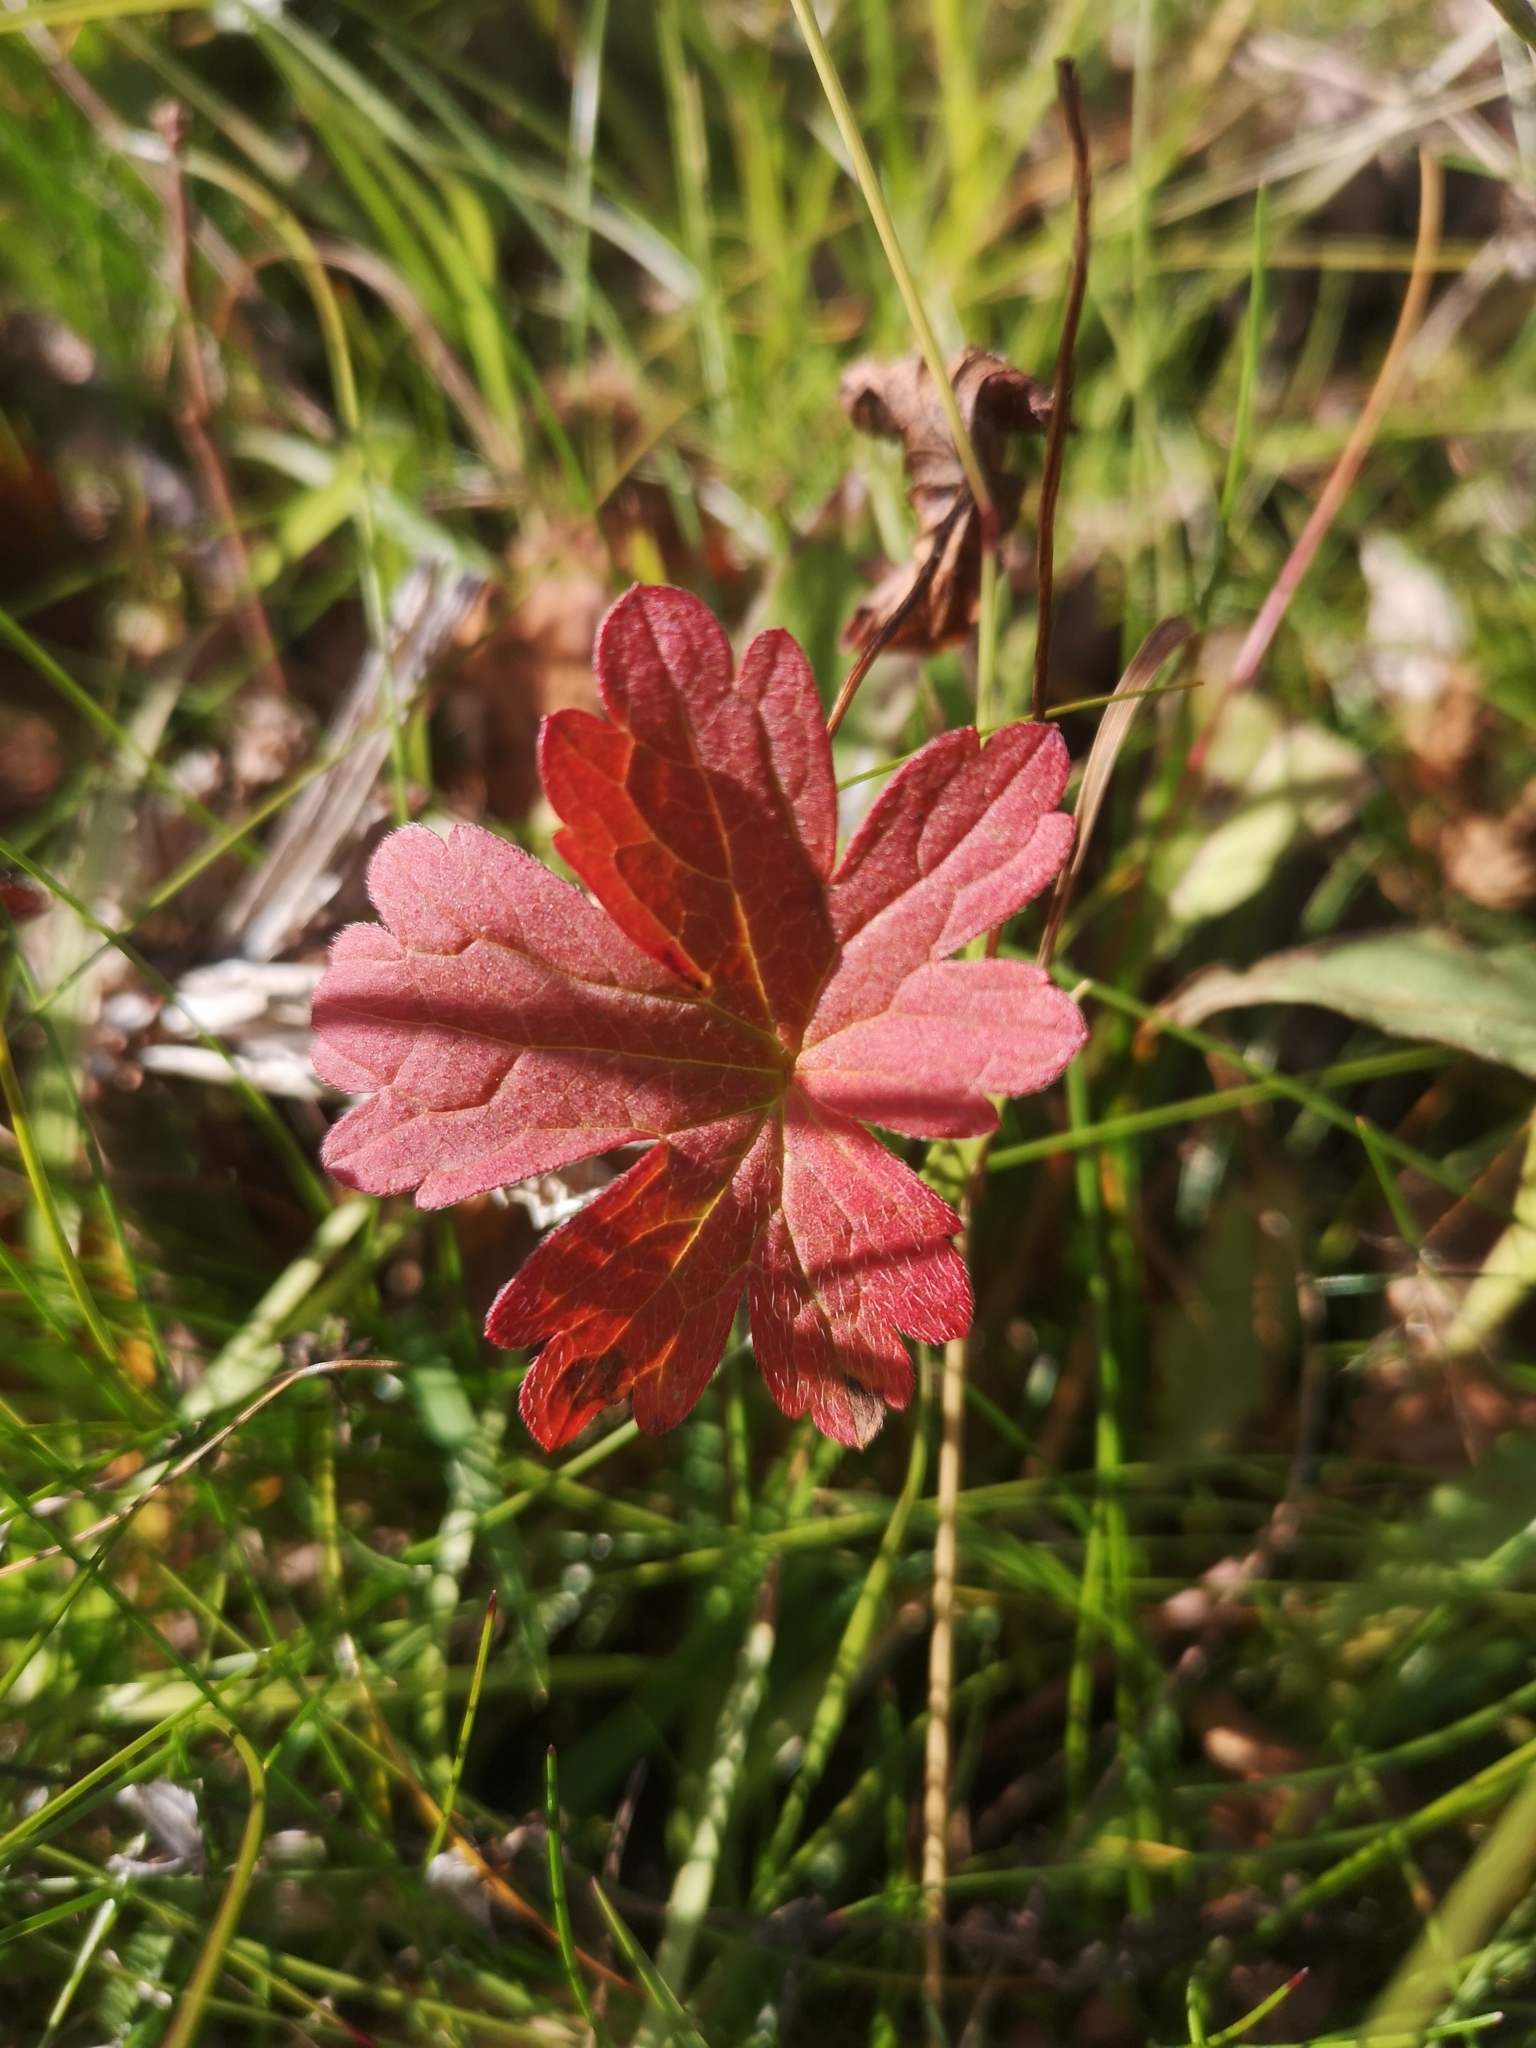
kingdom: Plantae
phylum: Tracheophyta
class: Magnoliopsida
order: Geraniales
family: Geraniaceae
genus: Geranium
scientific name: Geranium sylvaticum
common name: Wood crane's-bill
